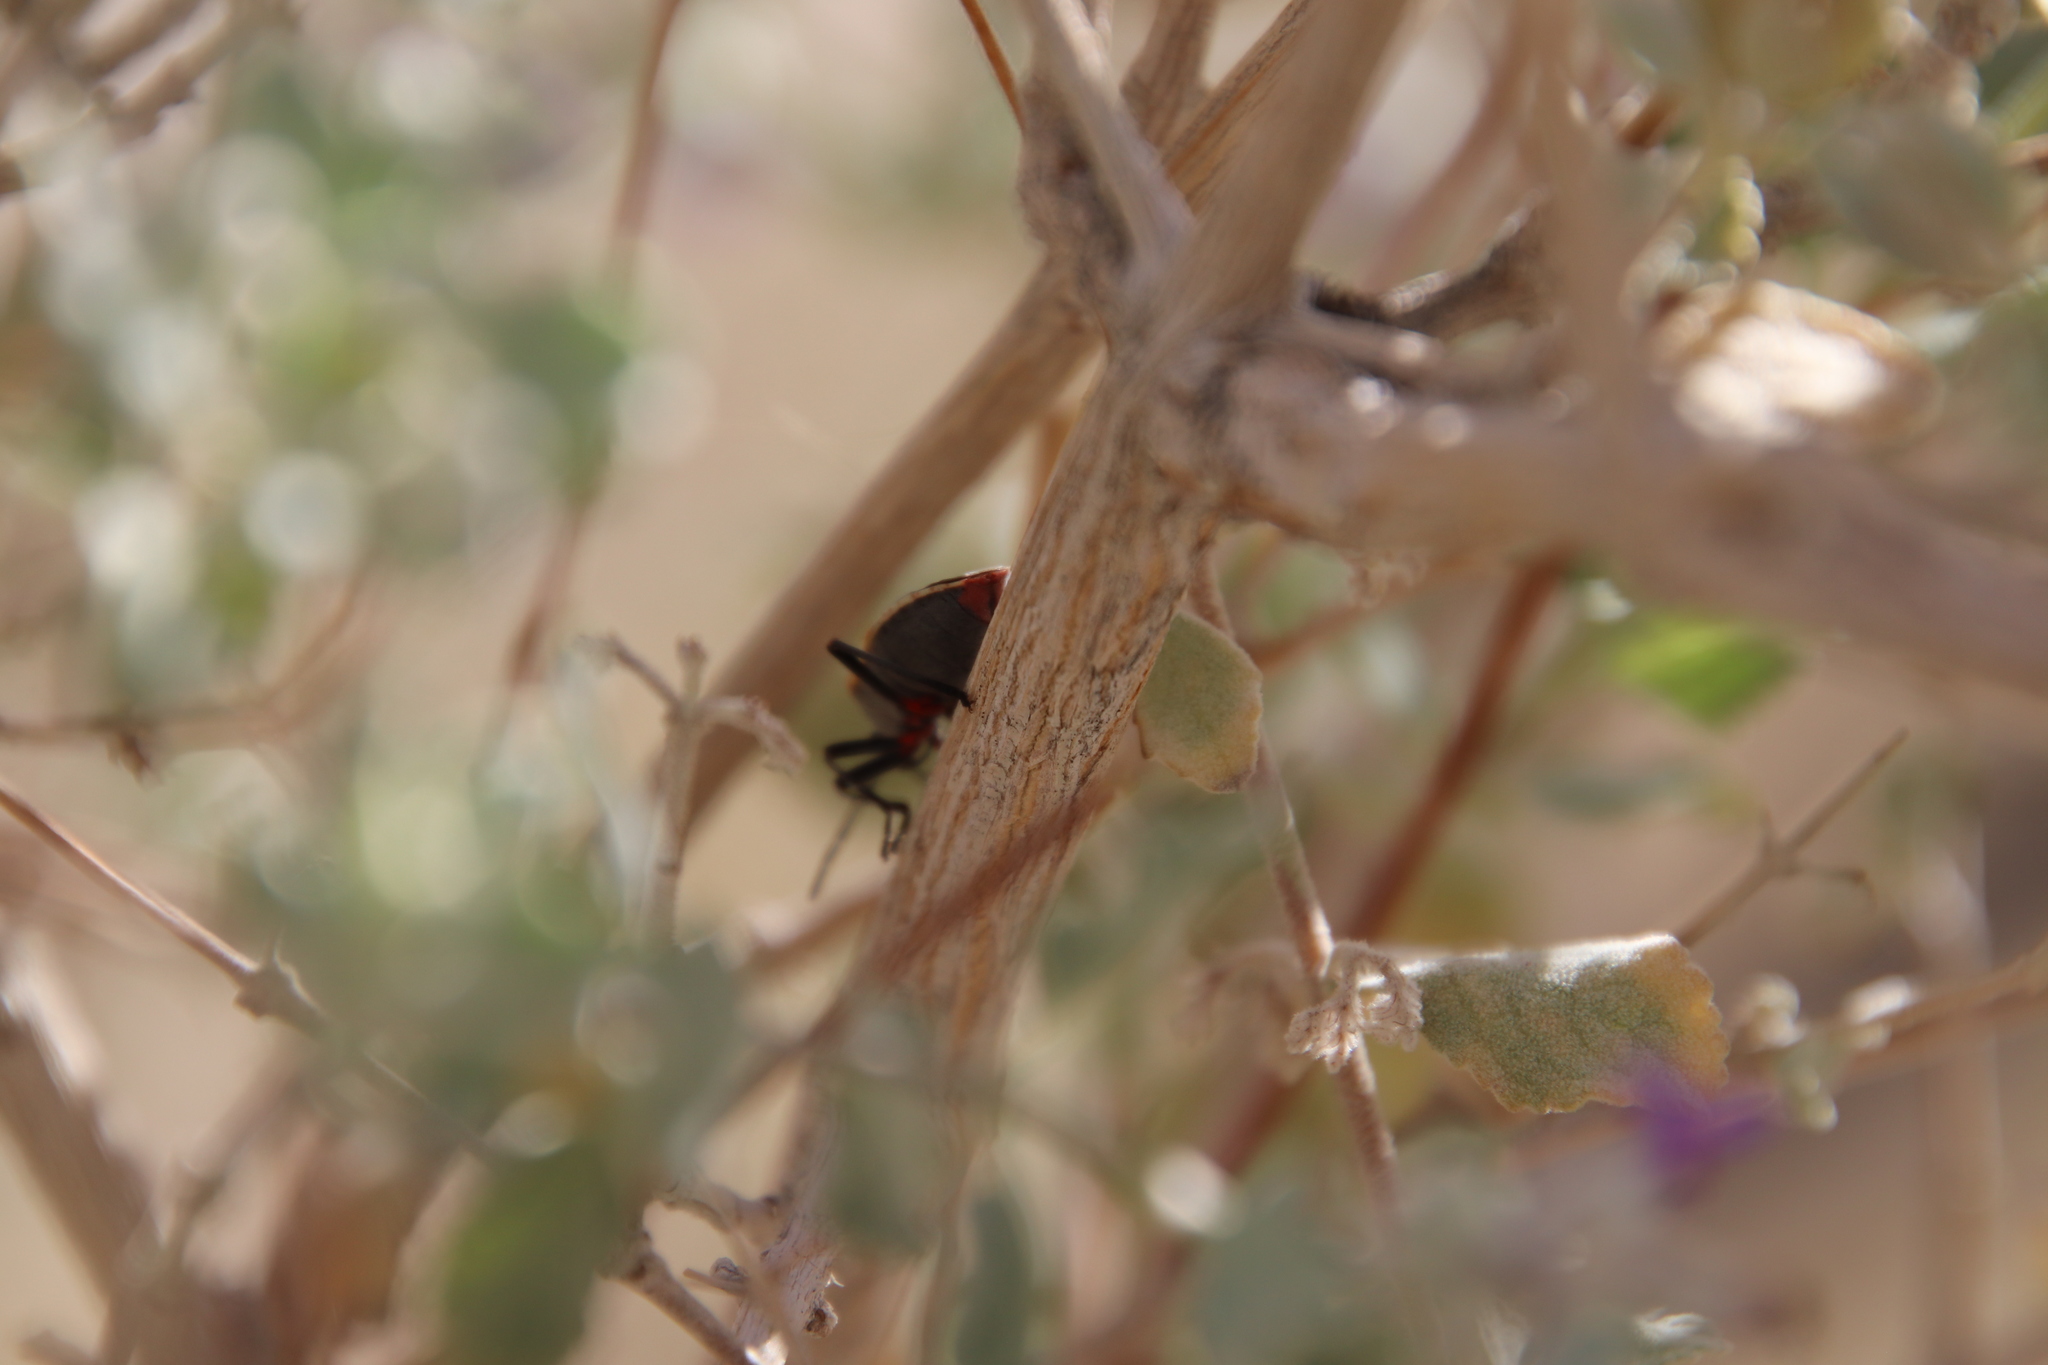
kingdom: Animalia
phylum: Arthropoda
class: Insecta
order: Hemiptera
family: Largidae
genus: Largus
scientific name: Largus californicus
